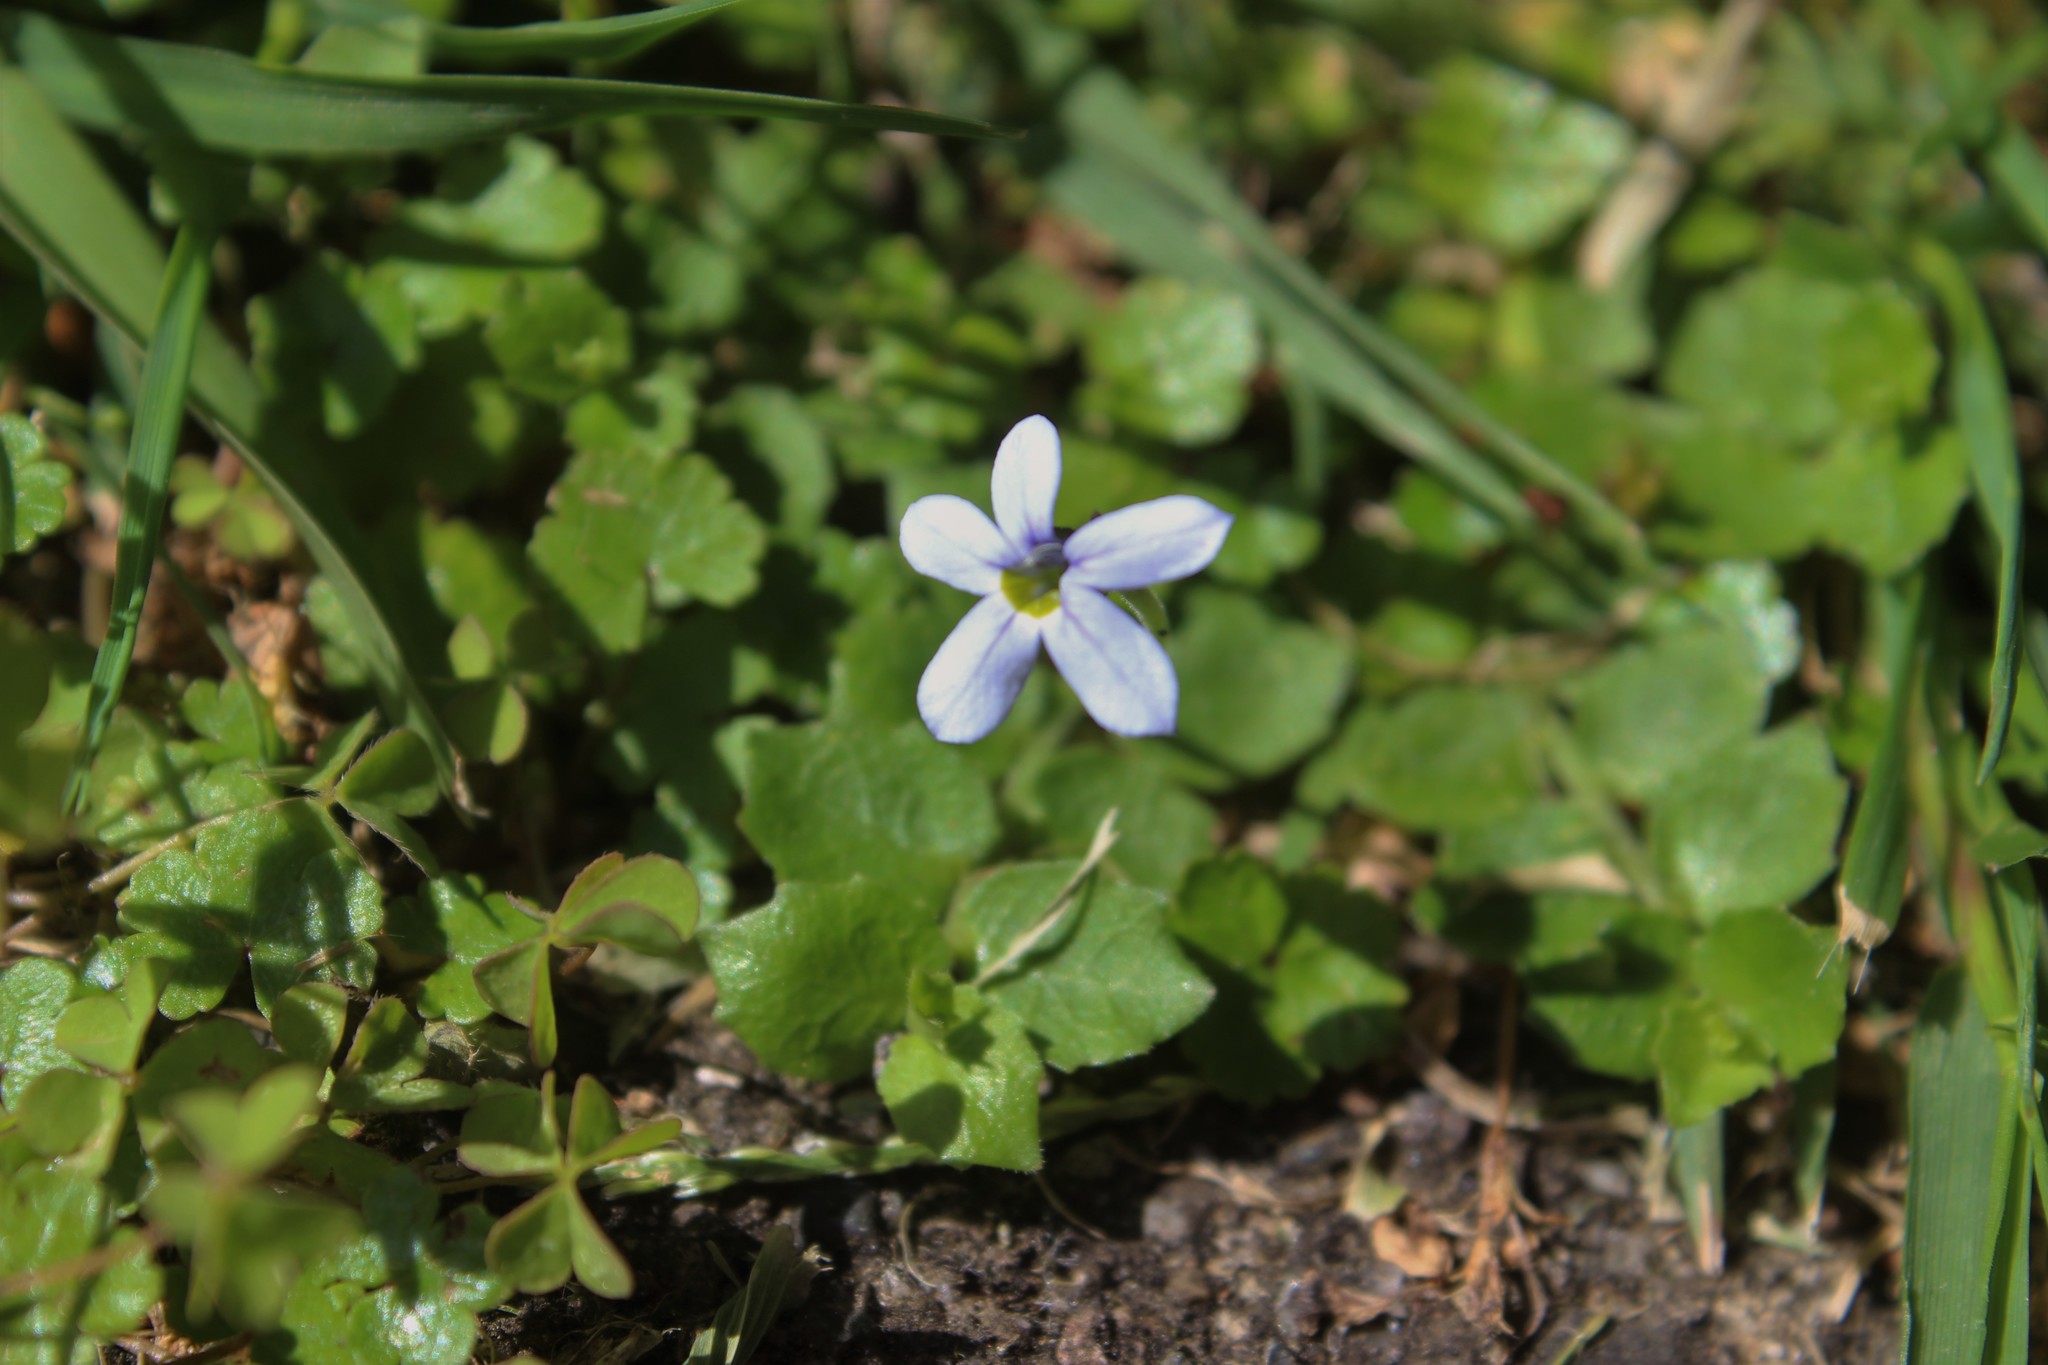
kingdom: Plantae
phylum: Tracheophyta
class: Magnoliopsida
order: Asterales
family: Campanulaceae
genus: Lobelia
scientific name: Lobelia pedunculata
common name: Matted pratia
